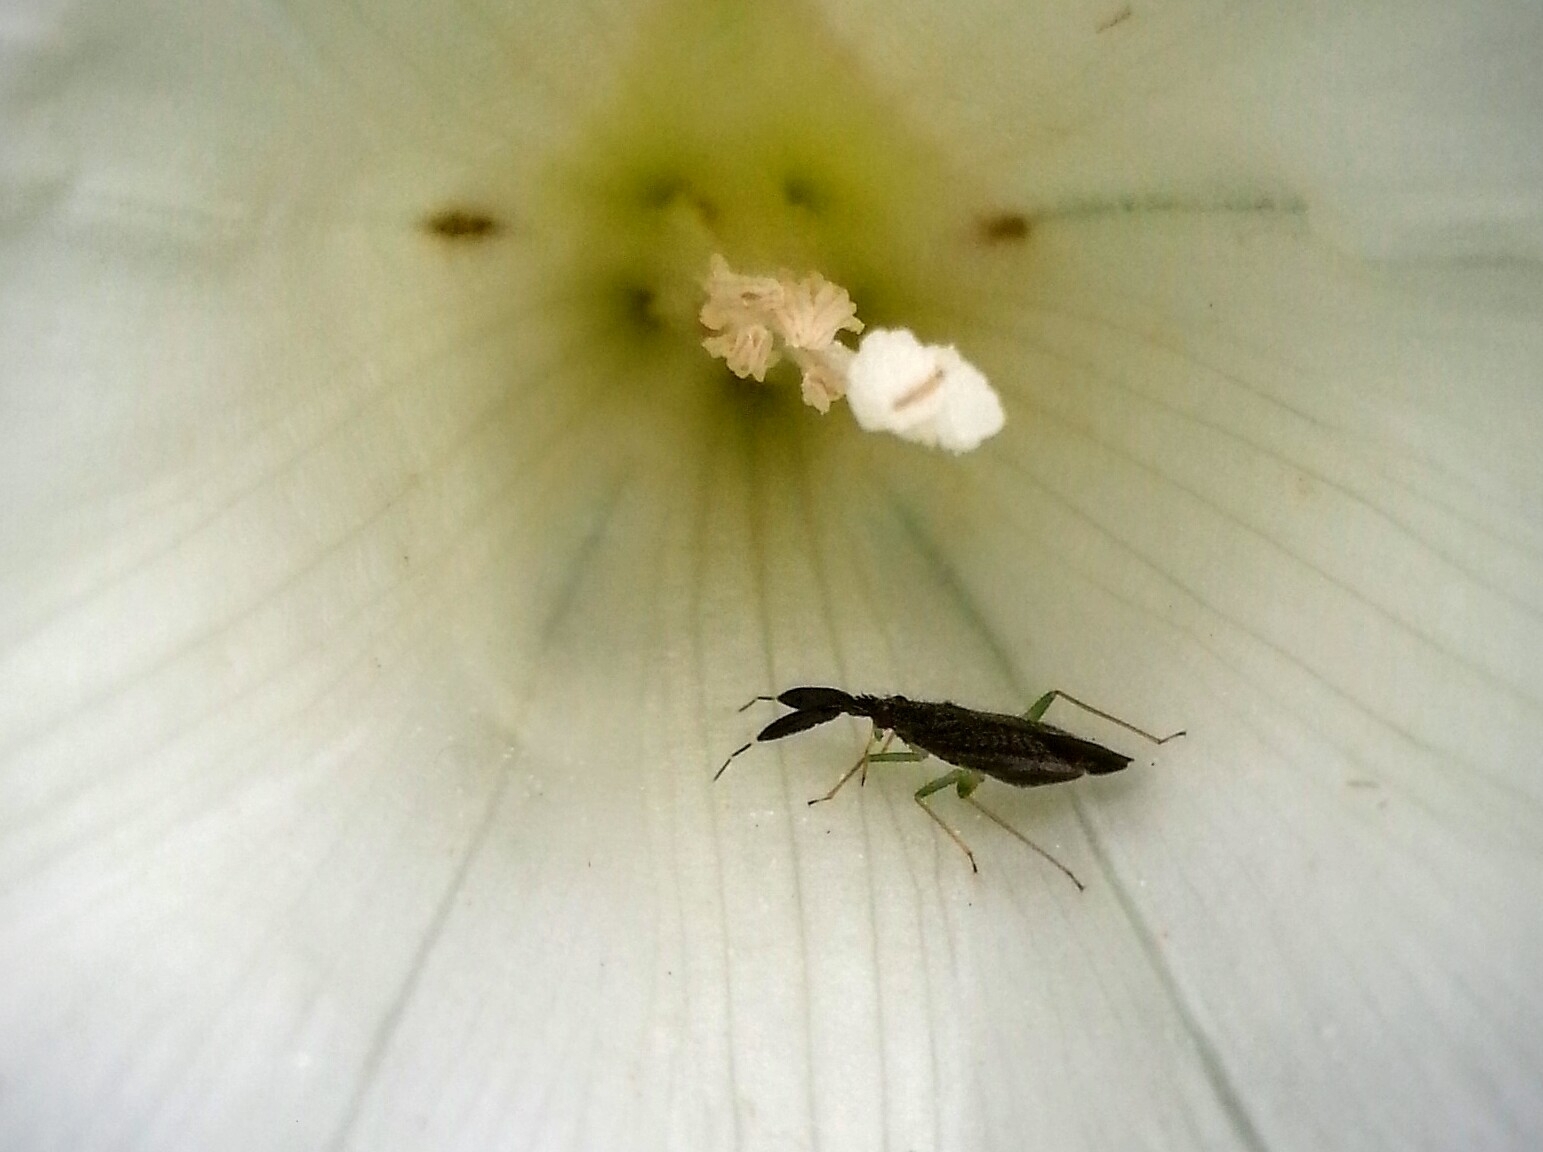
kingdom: Animalia
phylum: Arthropoda
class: Insecta
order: Hemiptera
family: Miridae
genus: Heterotoma
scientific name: Heterotoma planicornis
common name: Plant bug
